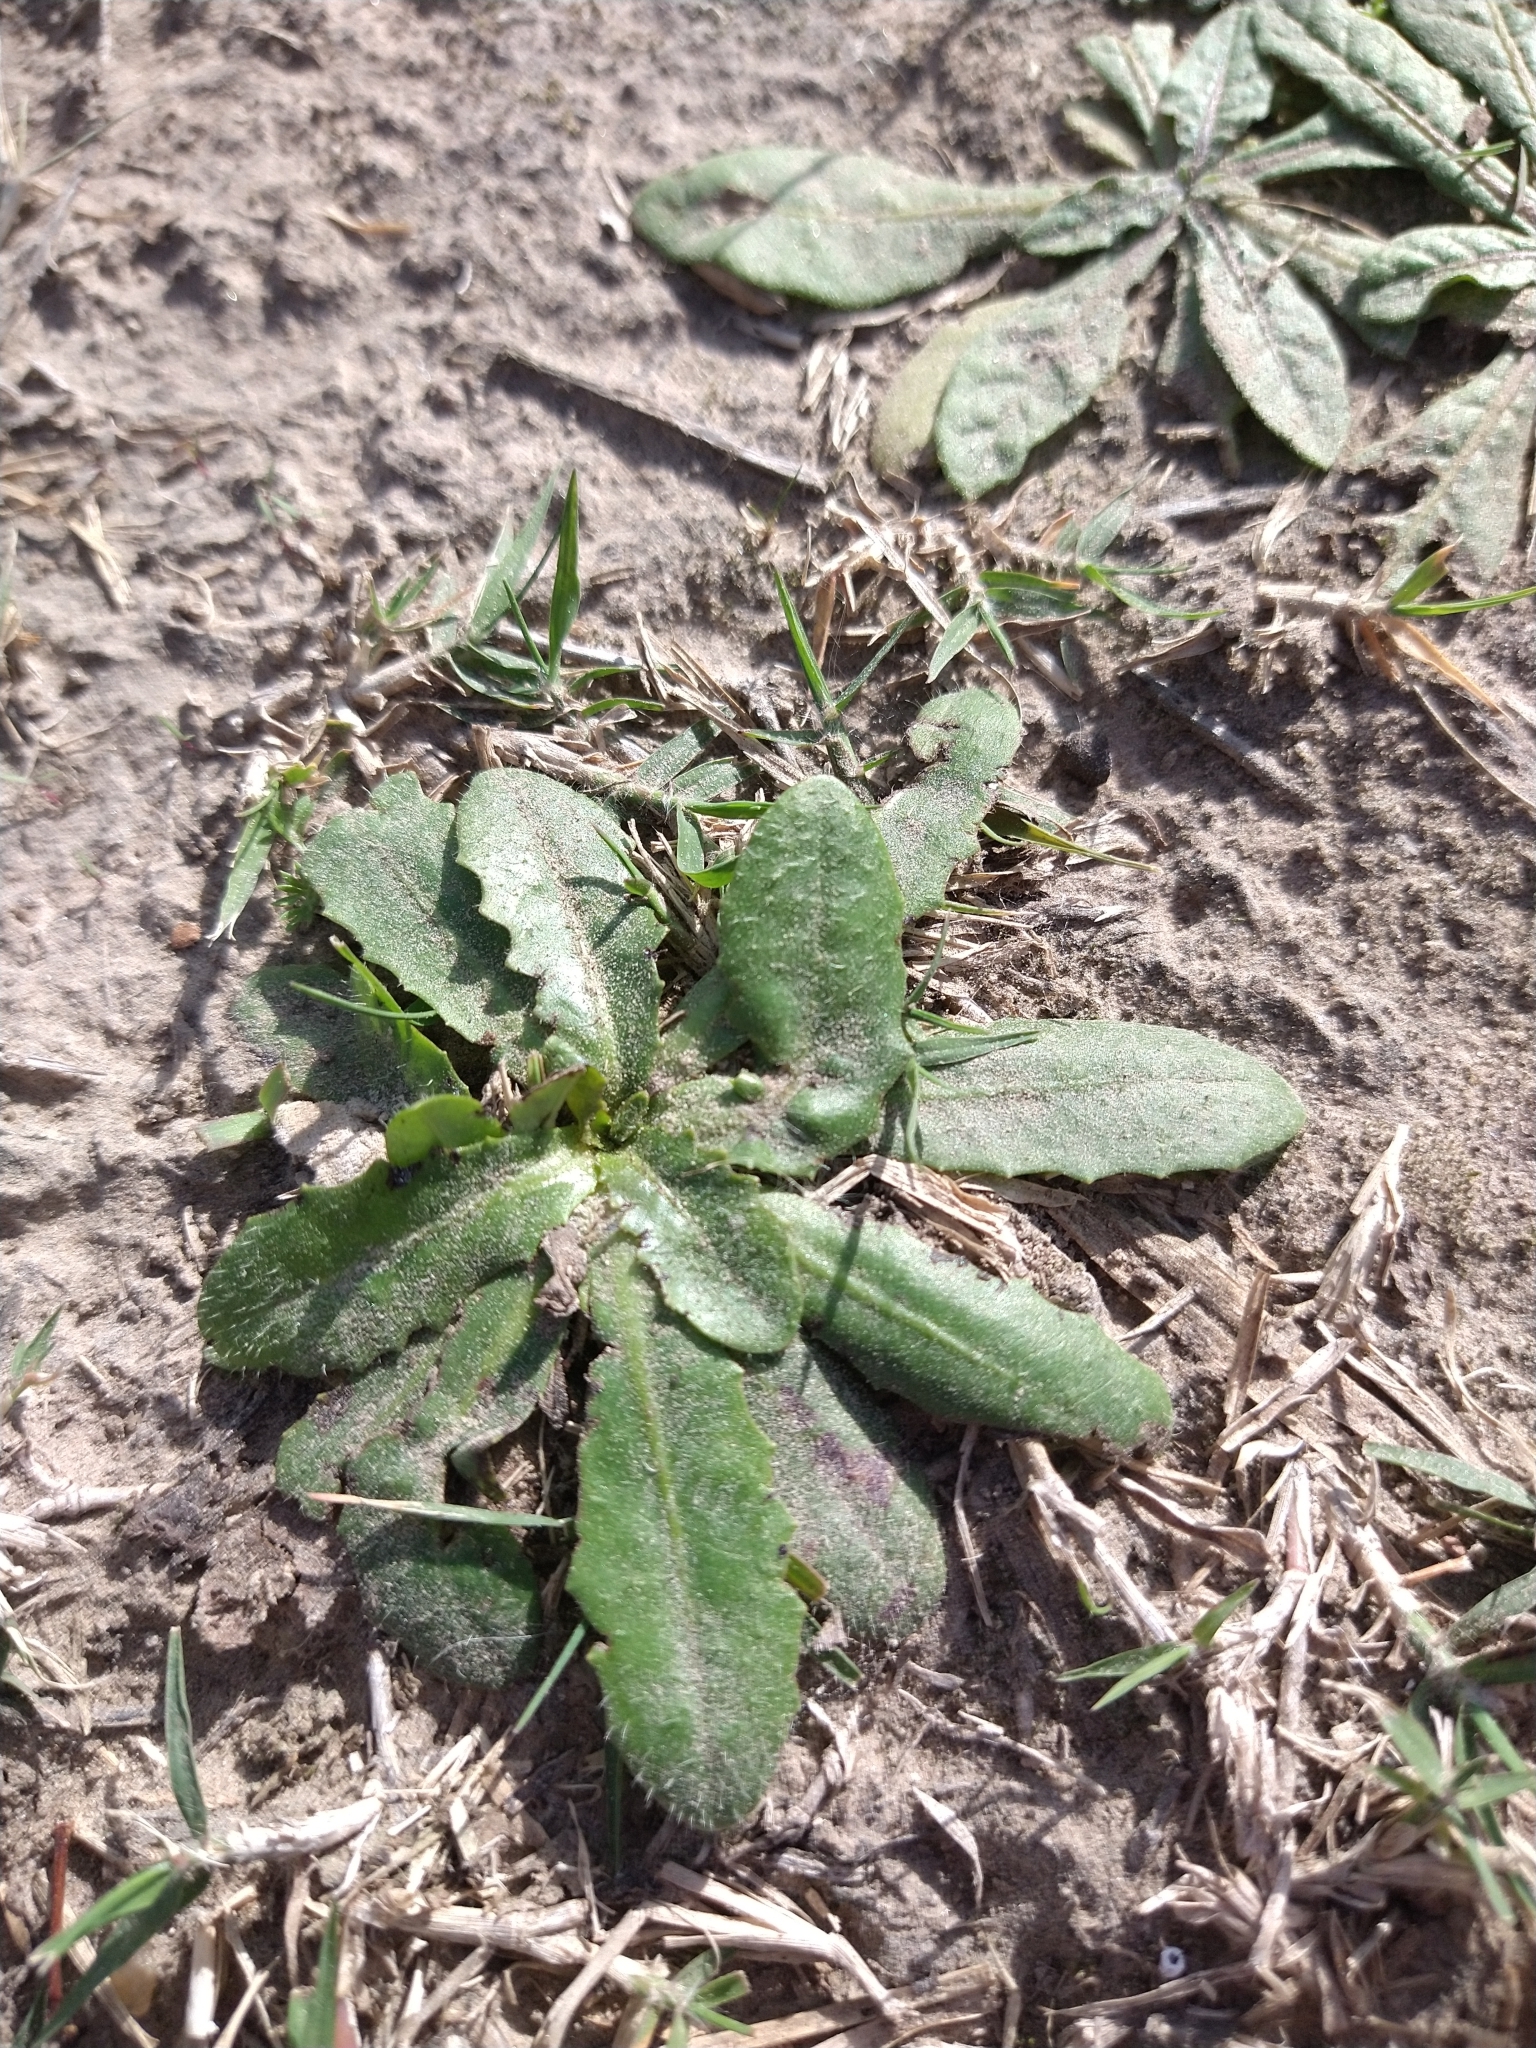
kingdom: Plantae
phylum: Tracheophyta
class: Magnoliopsida
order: Asterales
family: Asteraceae
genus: Hypochaeris
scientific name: Hypochaeris radicata
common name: Flatweed
